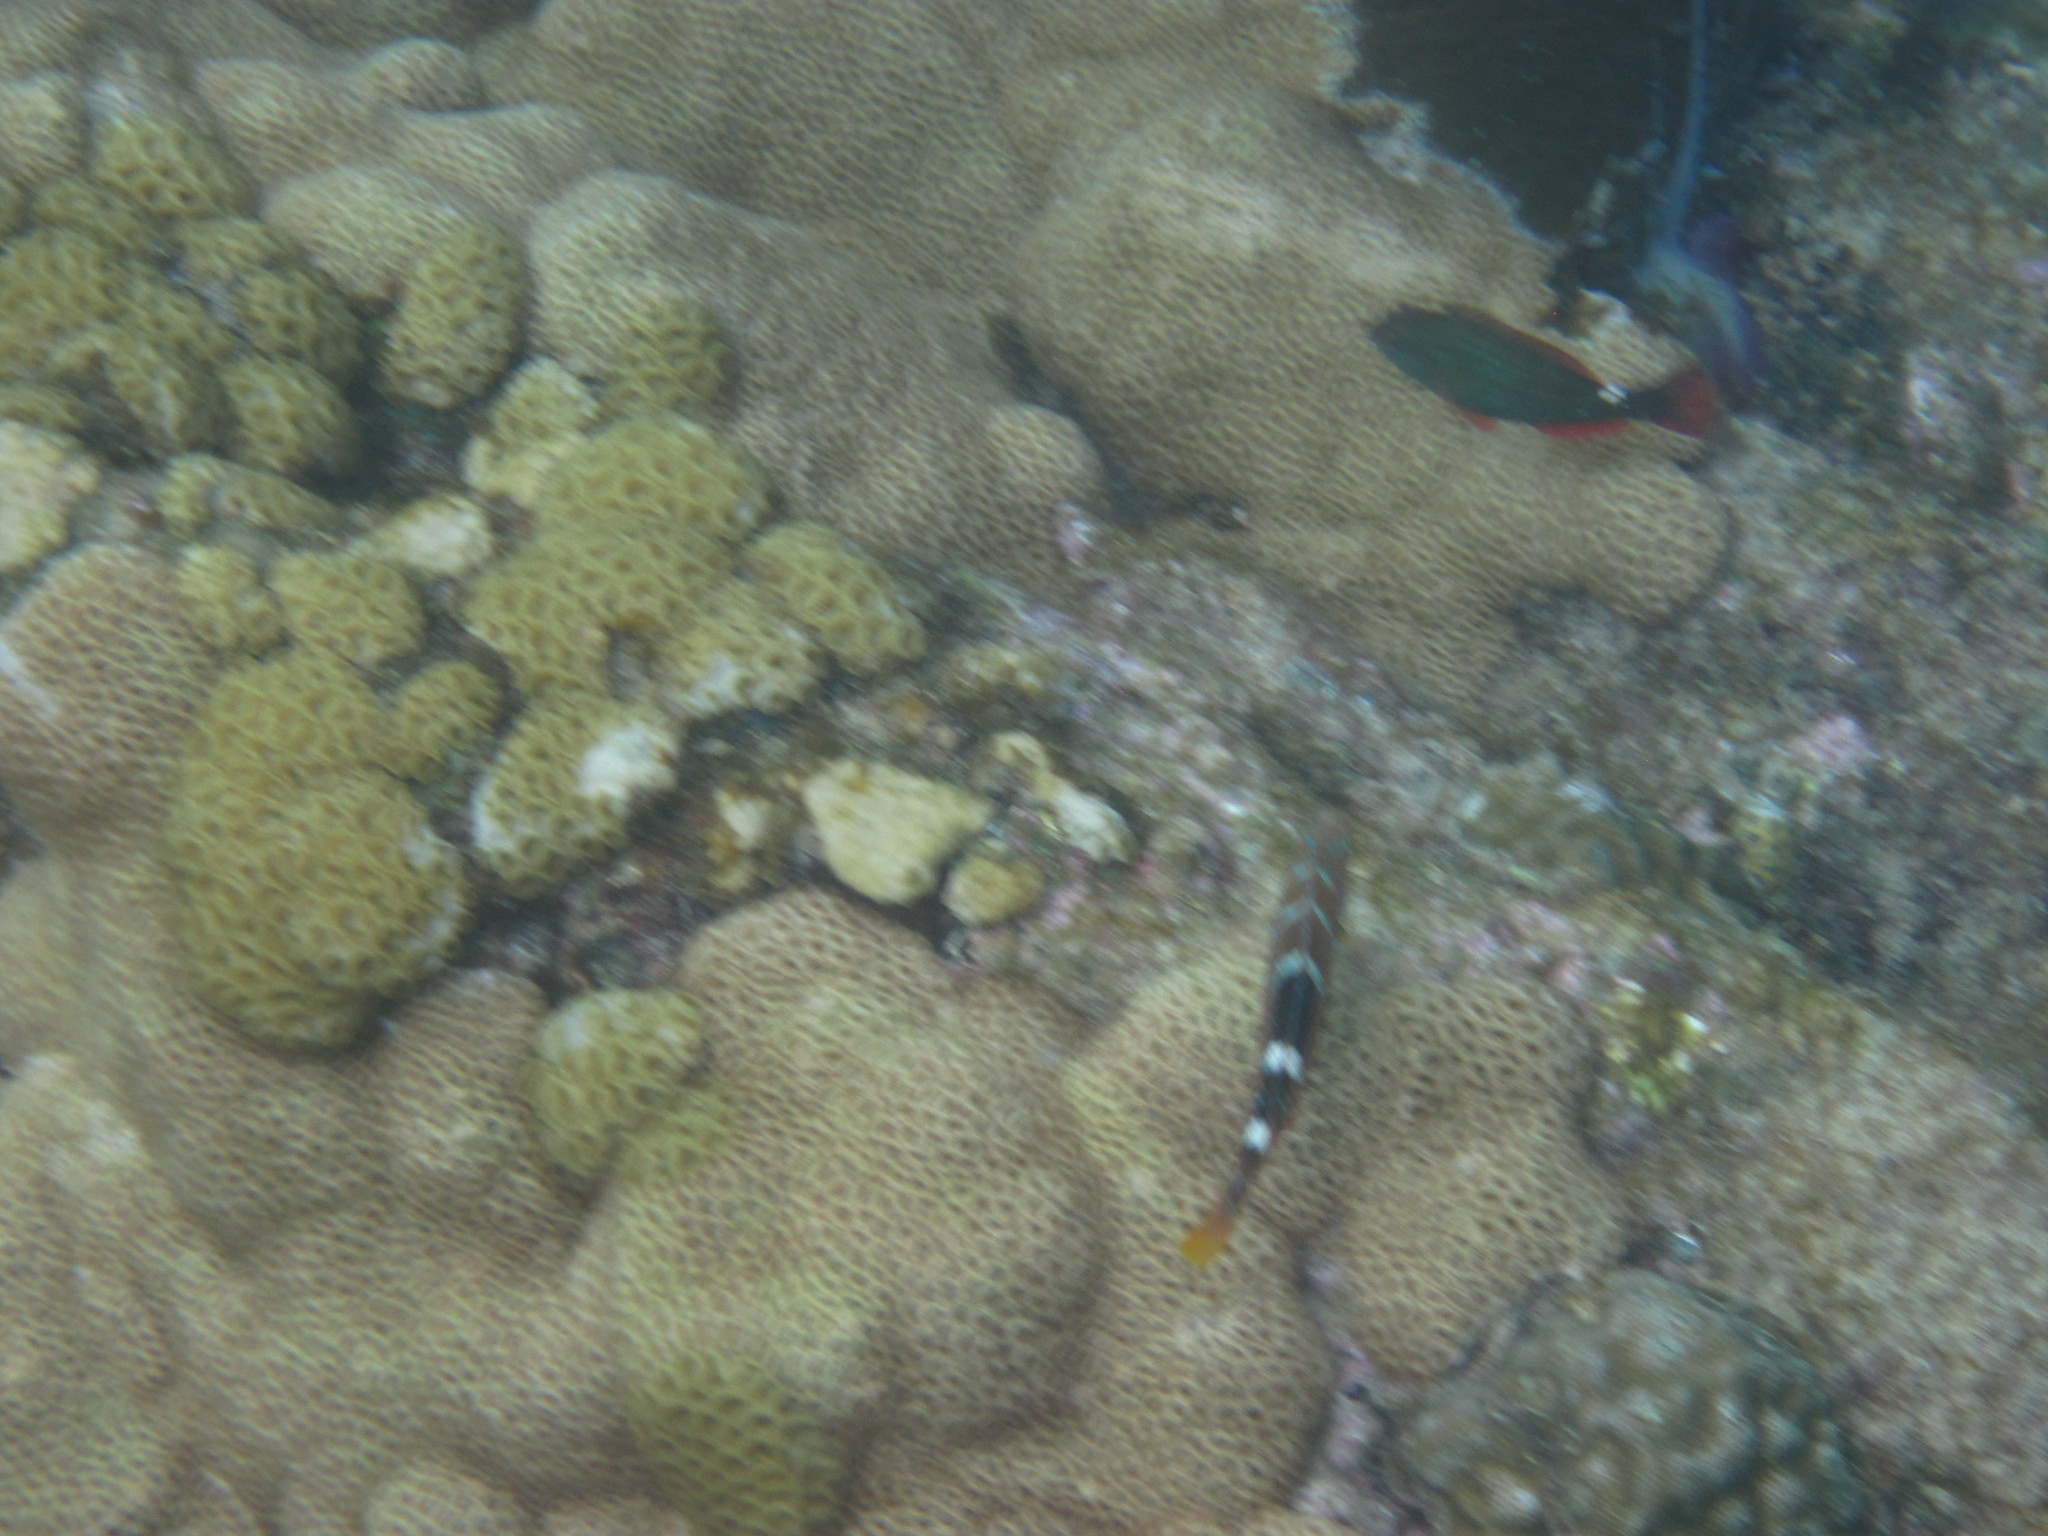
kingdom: Animalia
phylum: Chordata
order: Perciformes
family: Labridae
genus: Halichoeres
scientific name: Halichoeres radiatus
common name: Puddingwife
